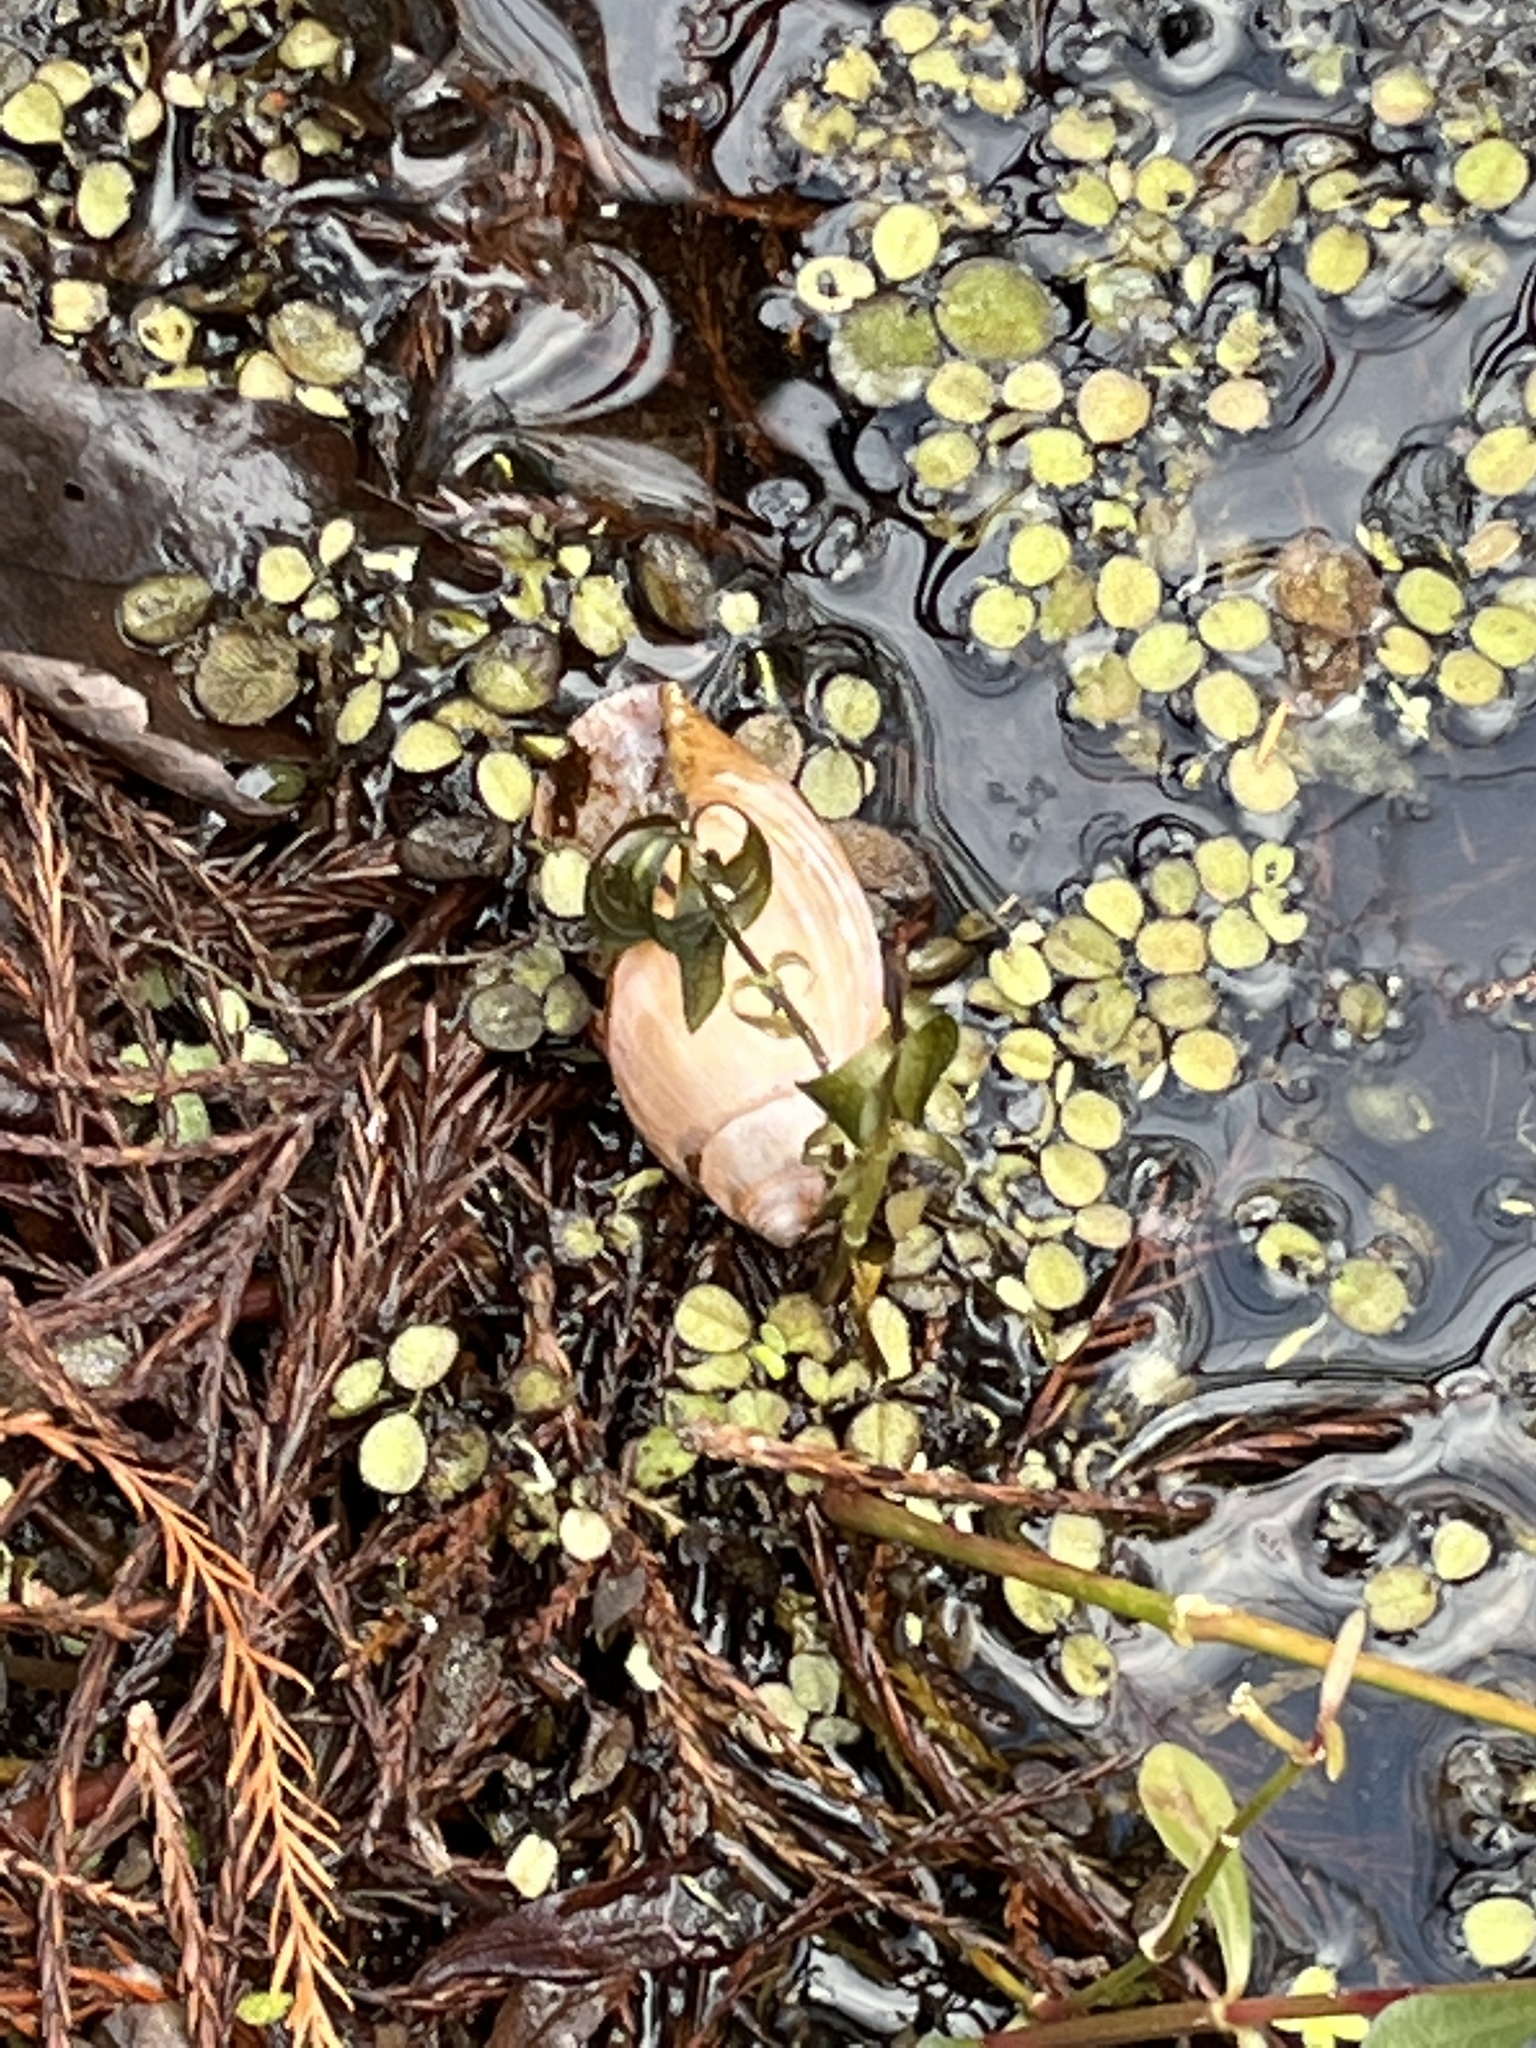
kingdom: Animalia
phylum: Mollusca
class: Gastropoda
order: Stylommatophora
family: Spiraxidae
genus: Euglandina
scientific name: Euglandina rosea
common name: Rosy wolfsnail
